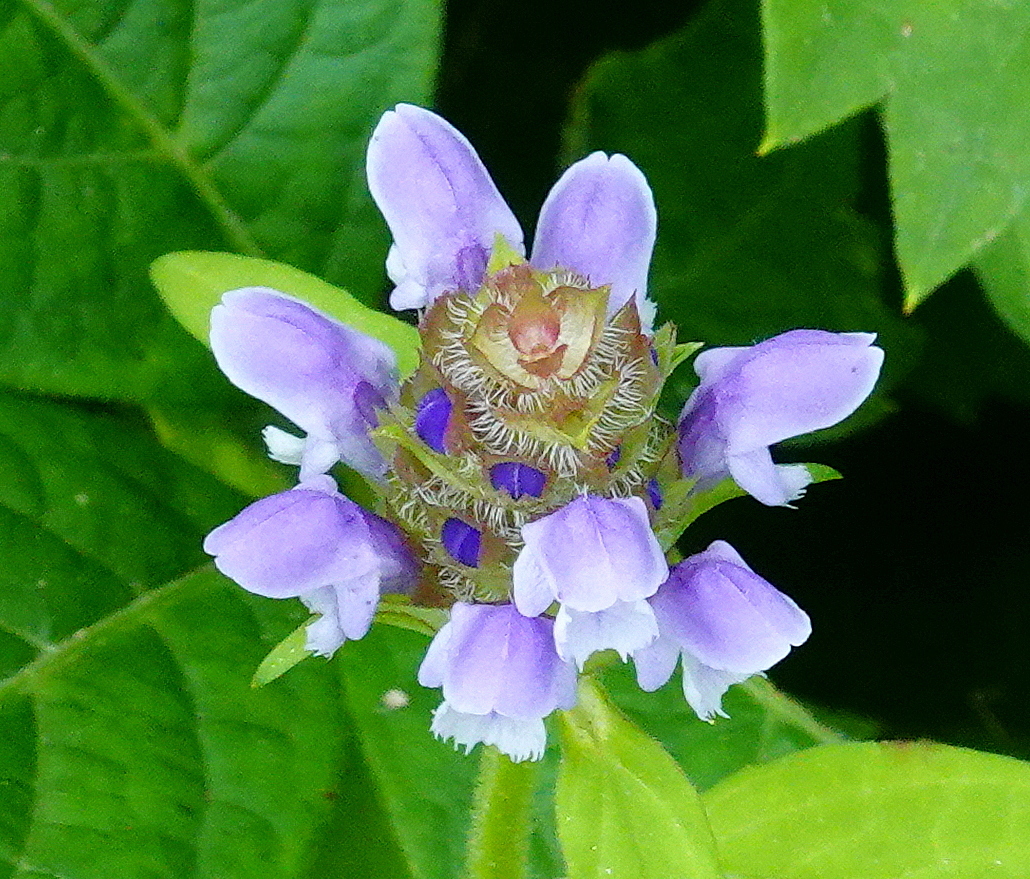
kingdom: Plantae
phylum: Tracheophyta
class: Magnoliopsida
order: Lamiales
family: Lamiaceae
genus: Prunella
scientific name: Prunella vulgaris
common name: Heal-all
